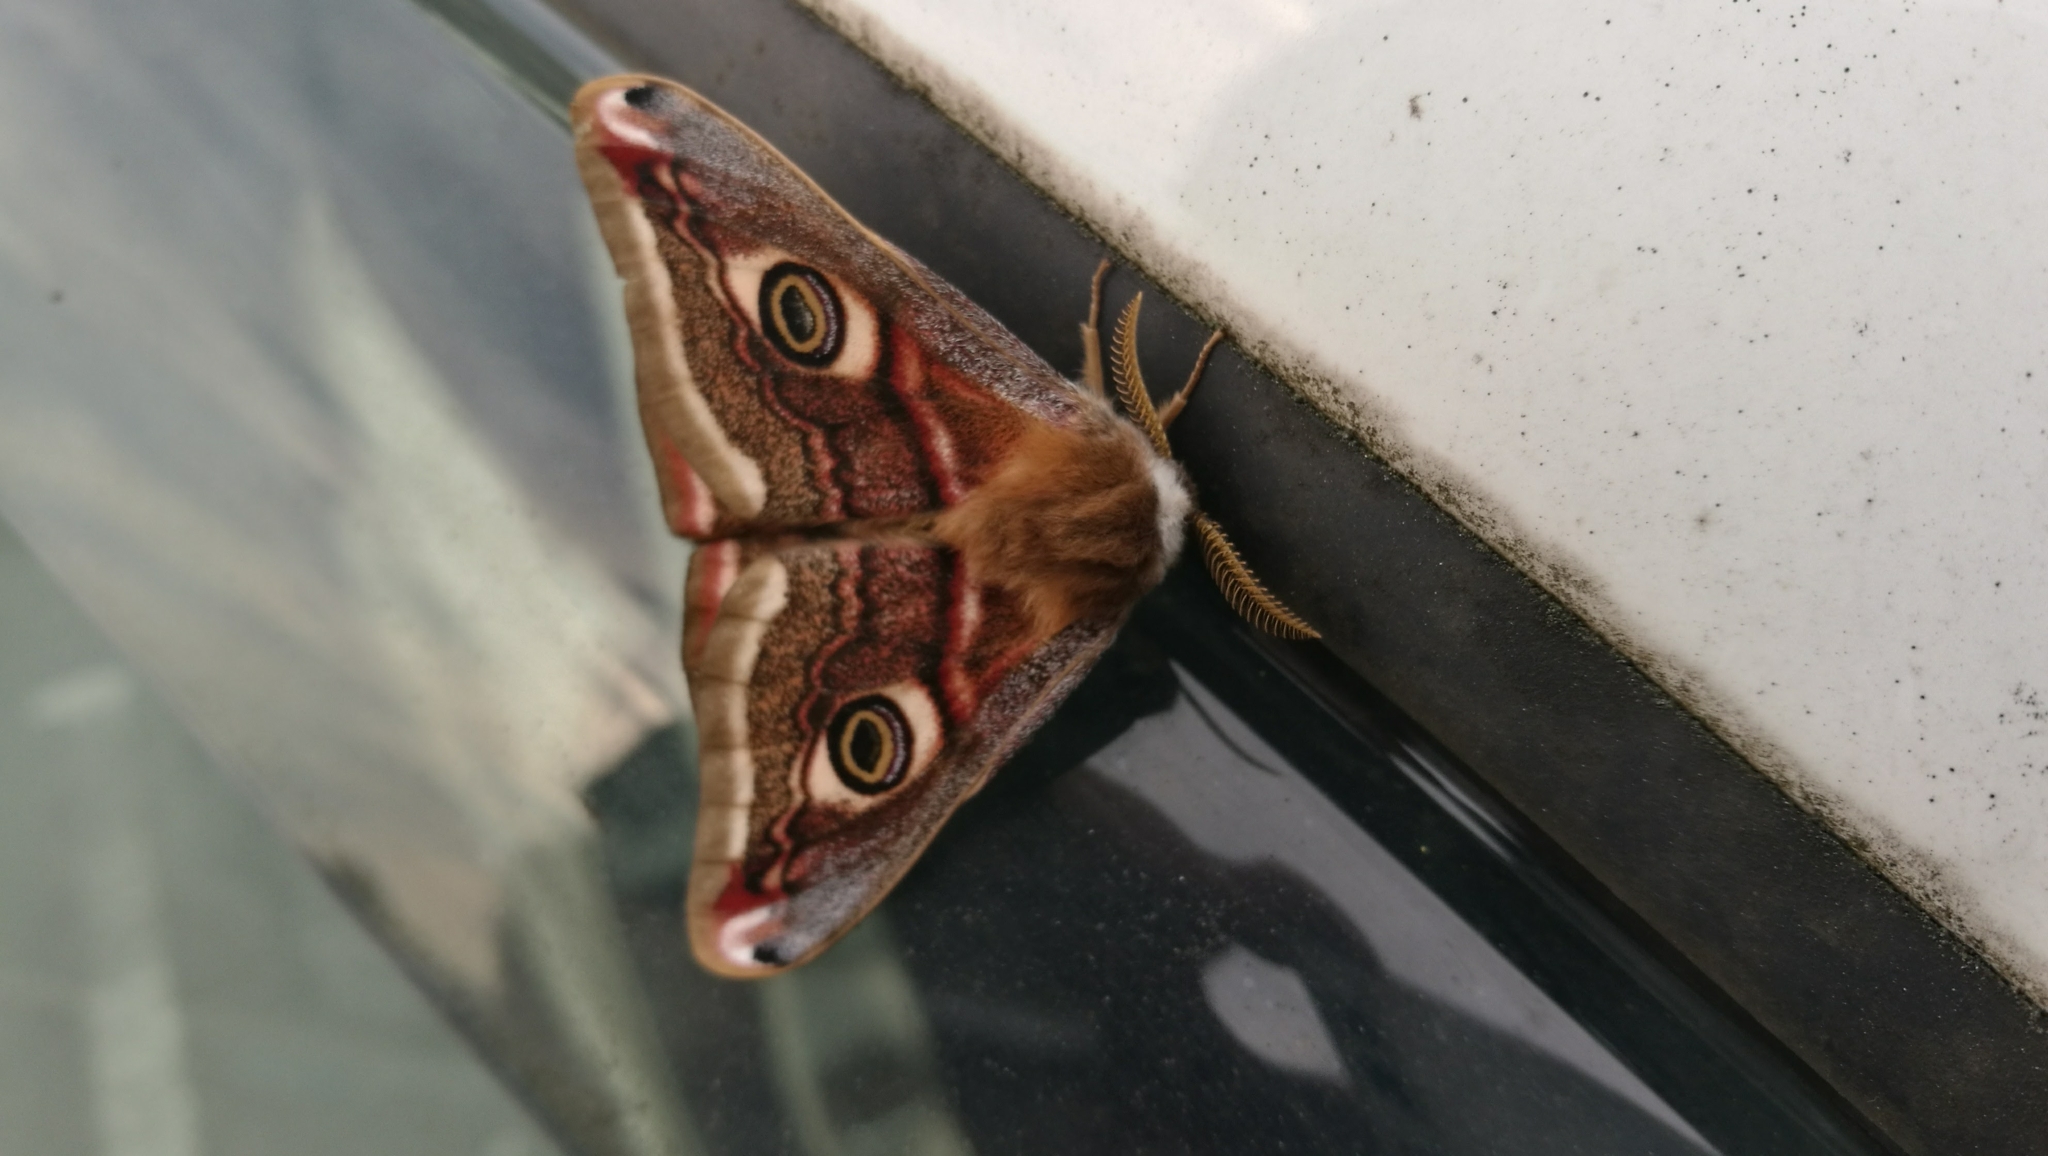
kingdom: Animalia
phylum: Arthropoda
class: Insecta
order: Lepidoptera
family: Saturniidae
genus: Saturnia
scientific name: Saturnia pavonia
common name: Emperor moth
